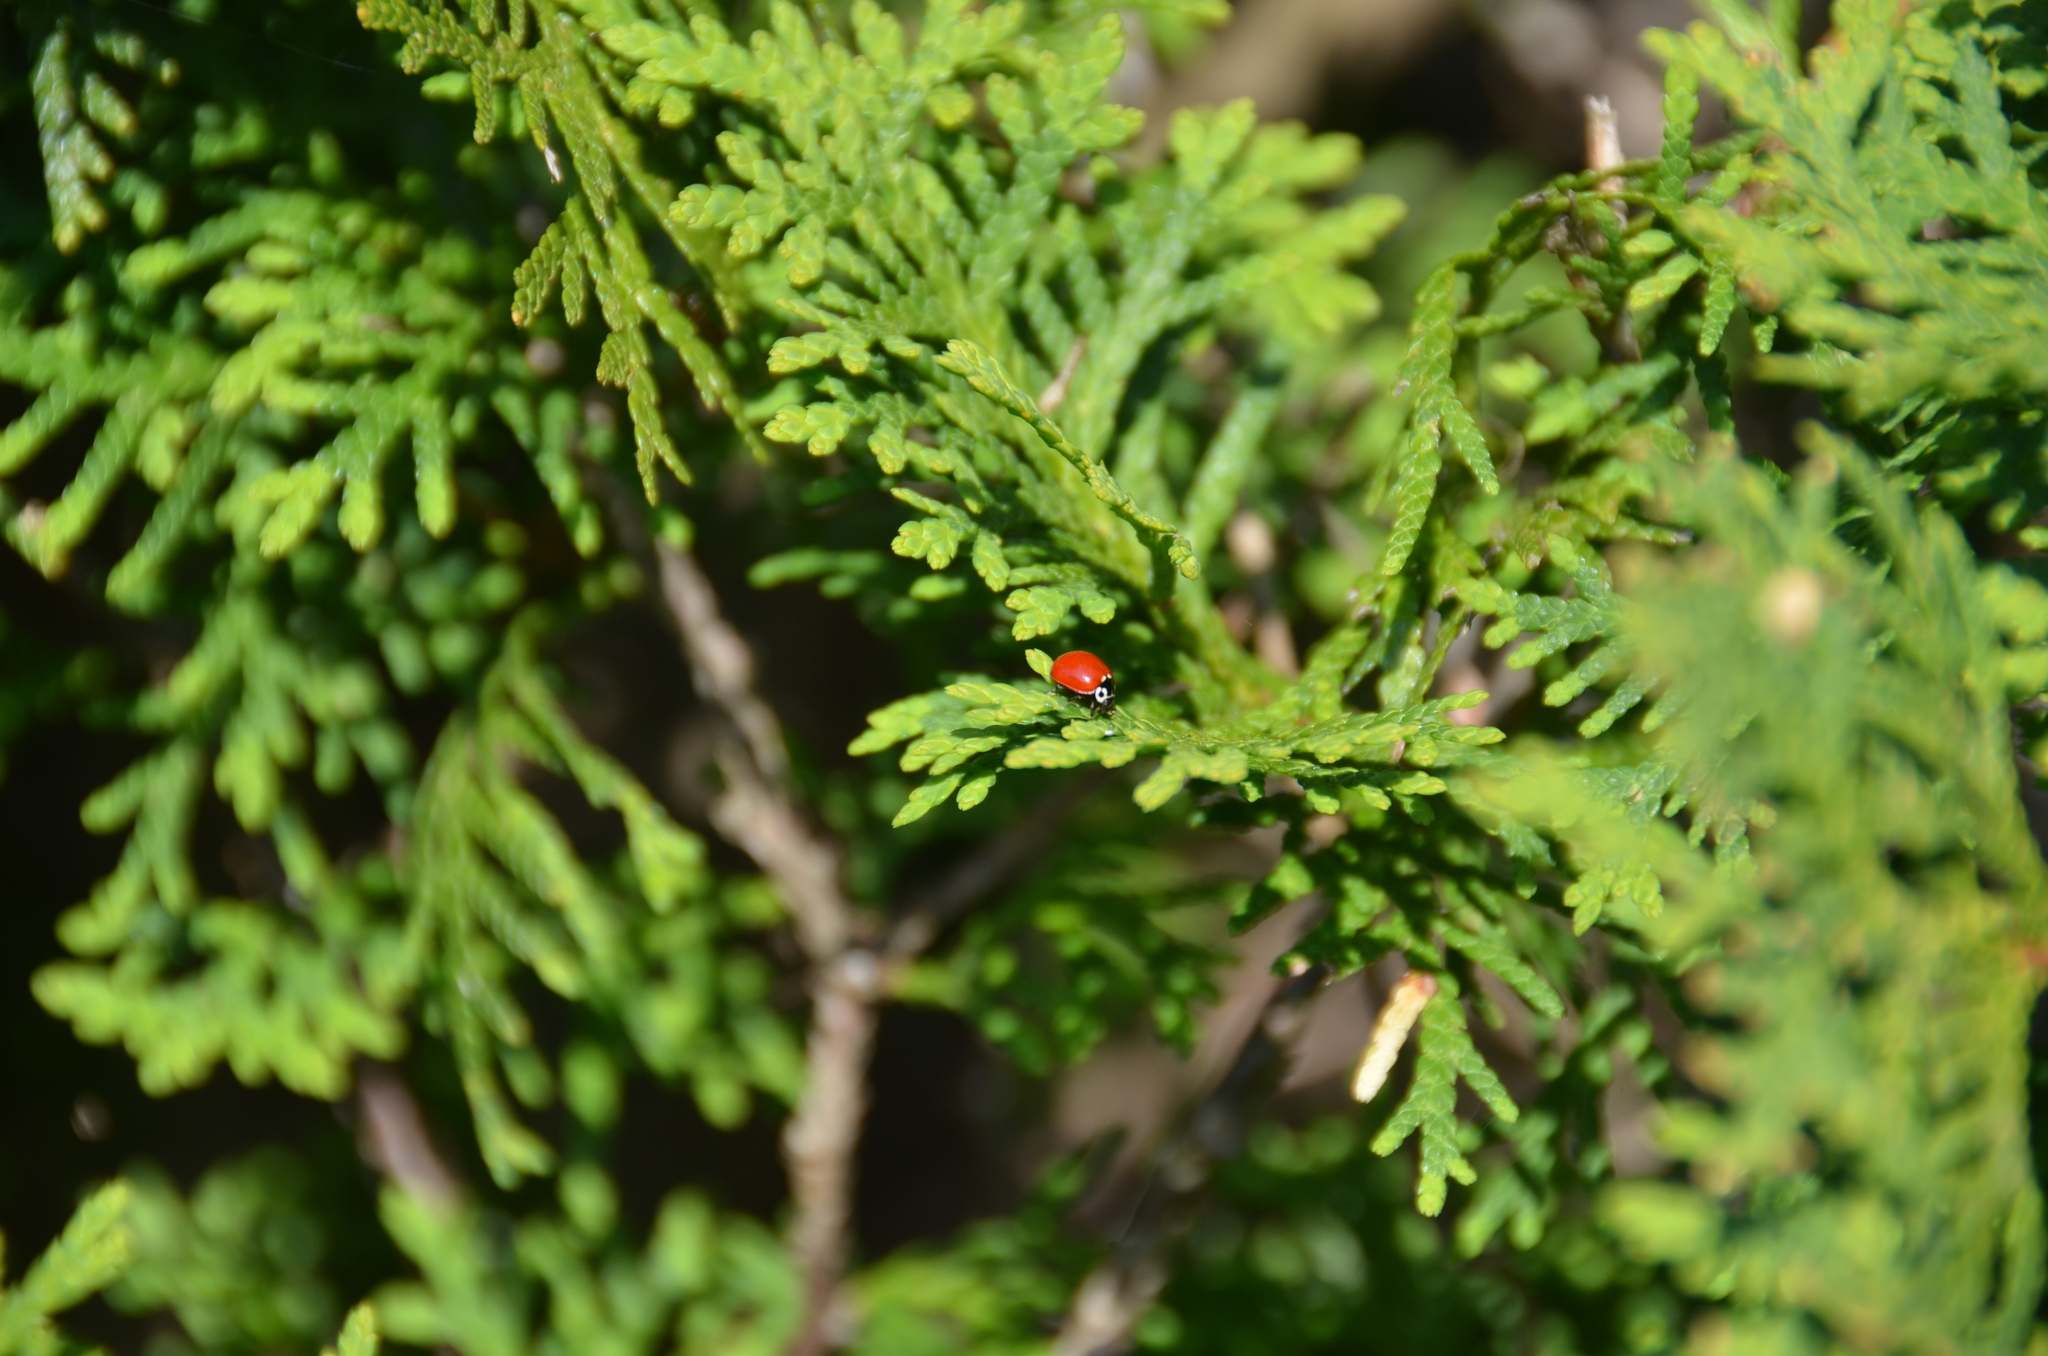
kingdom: Animalia
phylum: Arthropoda
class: Insecta
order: Coleoptera
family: Coccinellidae
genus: Cycloneda
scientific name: Cycloneda polita
